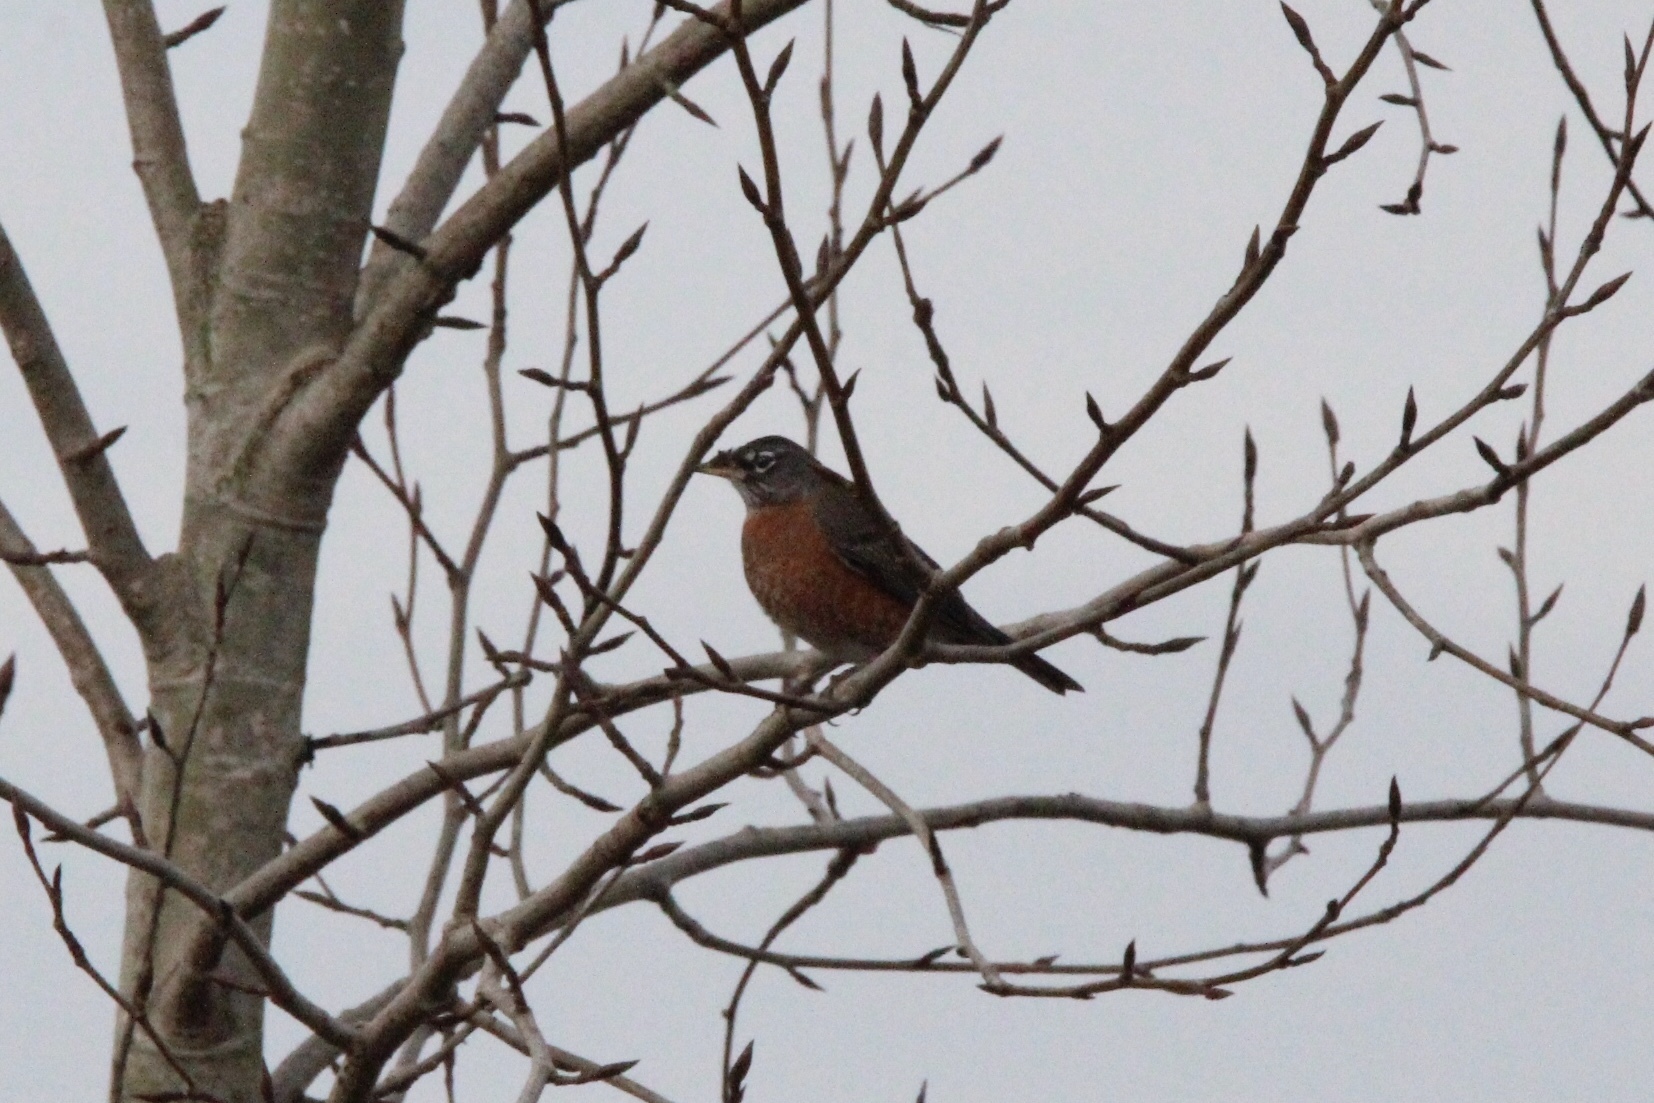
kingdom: Animalia
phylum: Chordata
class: Aves
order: Passeriformes
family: Turdidae
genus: Turdus
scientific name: Turdus migratorius
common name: American robin
